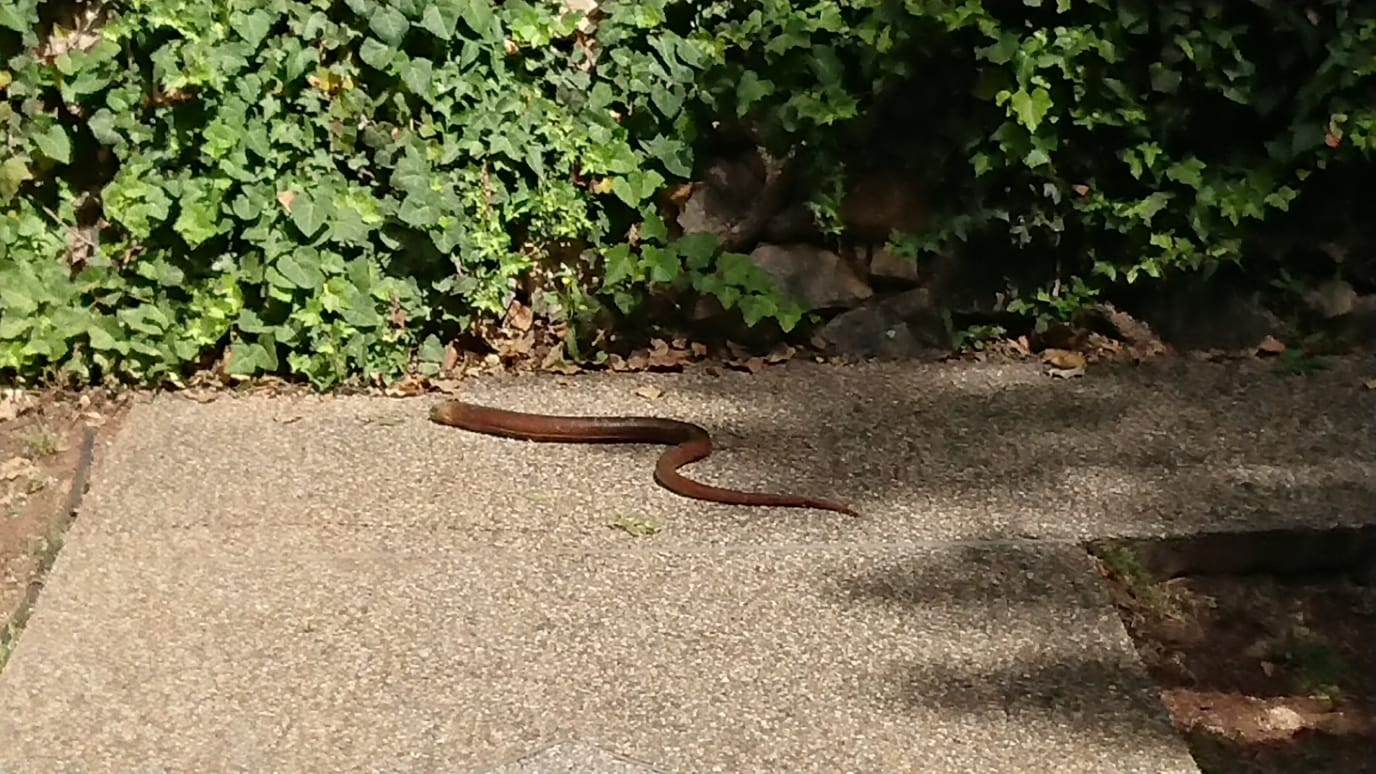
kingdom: Animalia
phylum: Chordata
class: Squamata
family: Anguidae
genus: Pseudopus
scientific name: Pseudopus apodus
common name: European glass lizard
